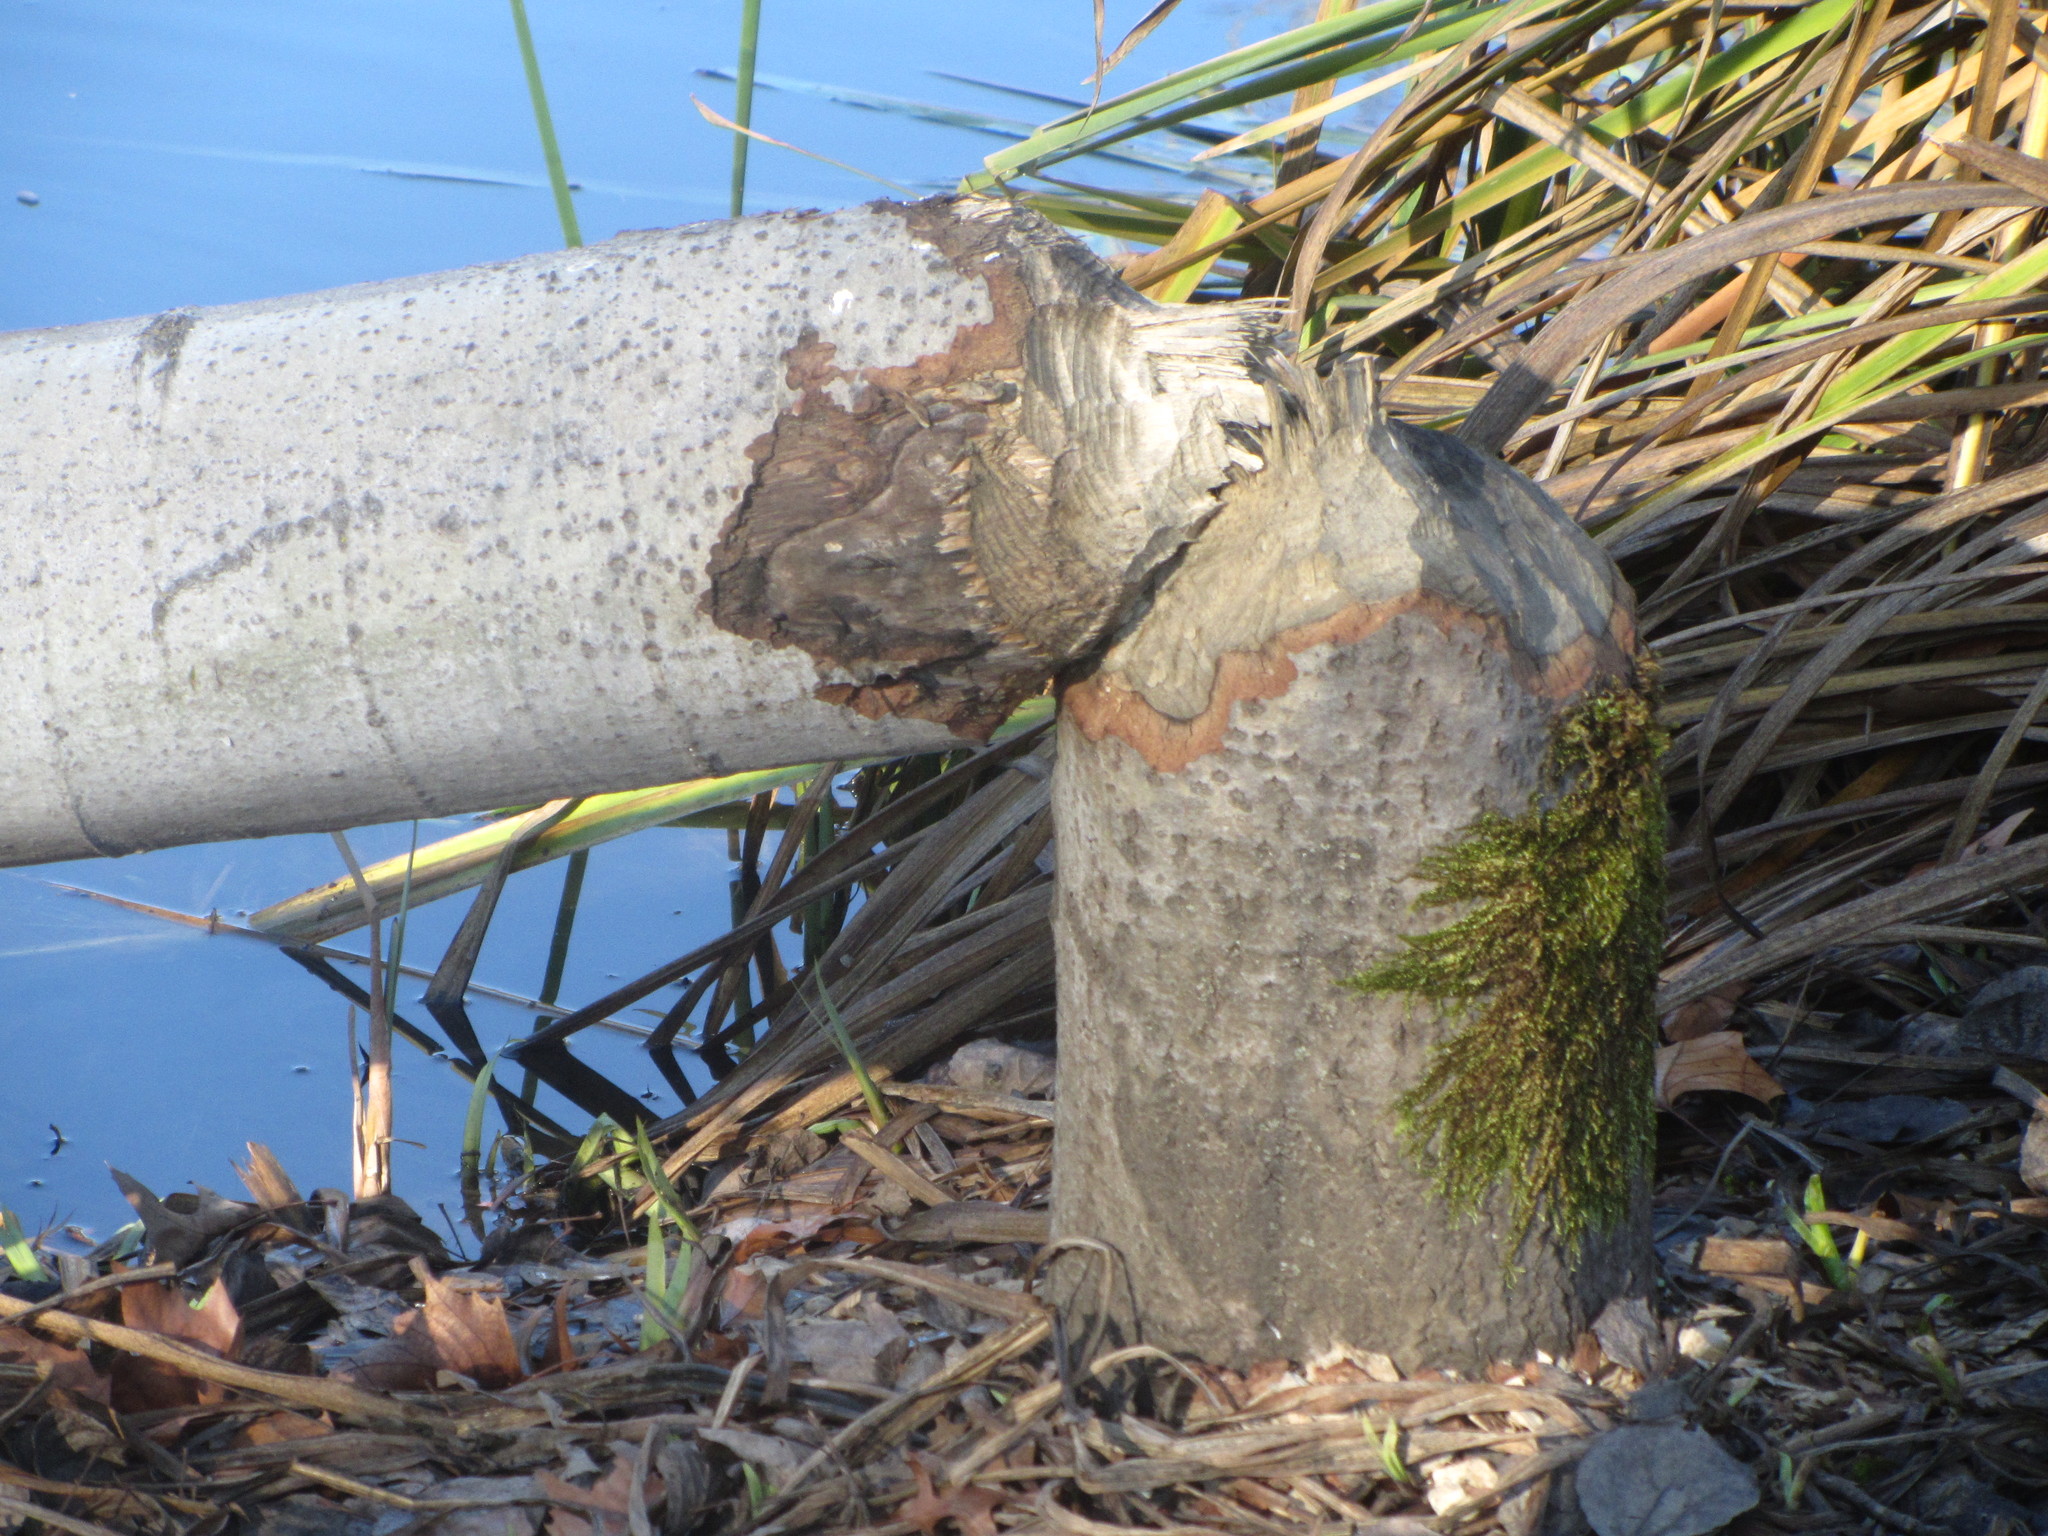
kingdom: Animalia
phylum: Chordata
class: Mammalia
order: Rodentia
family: Castoridae
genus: Castor
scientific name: Castor canadensis
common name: American beaver
